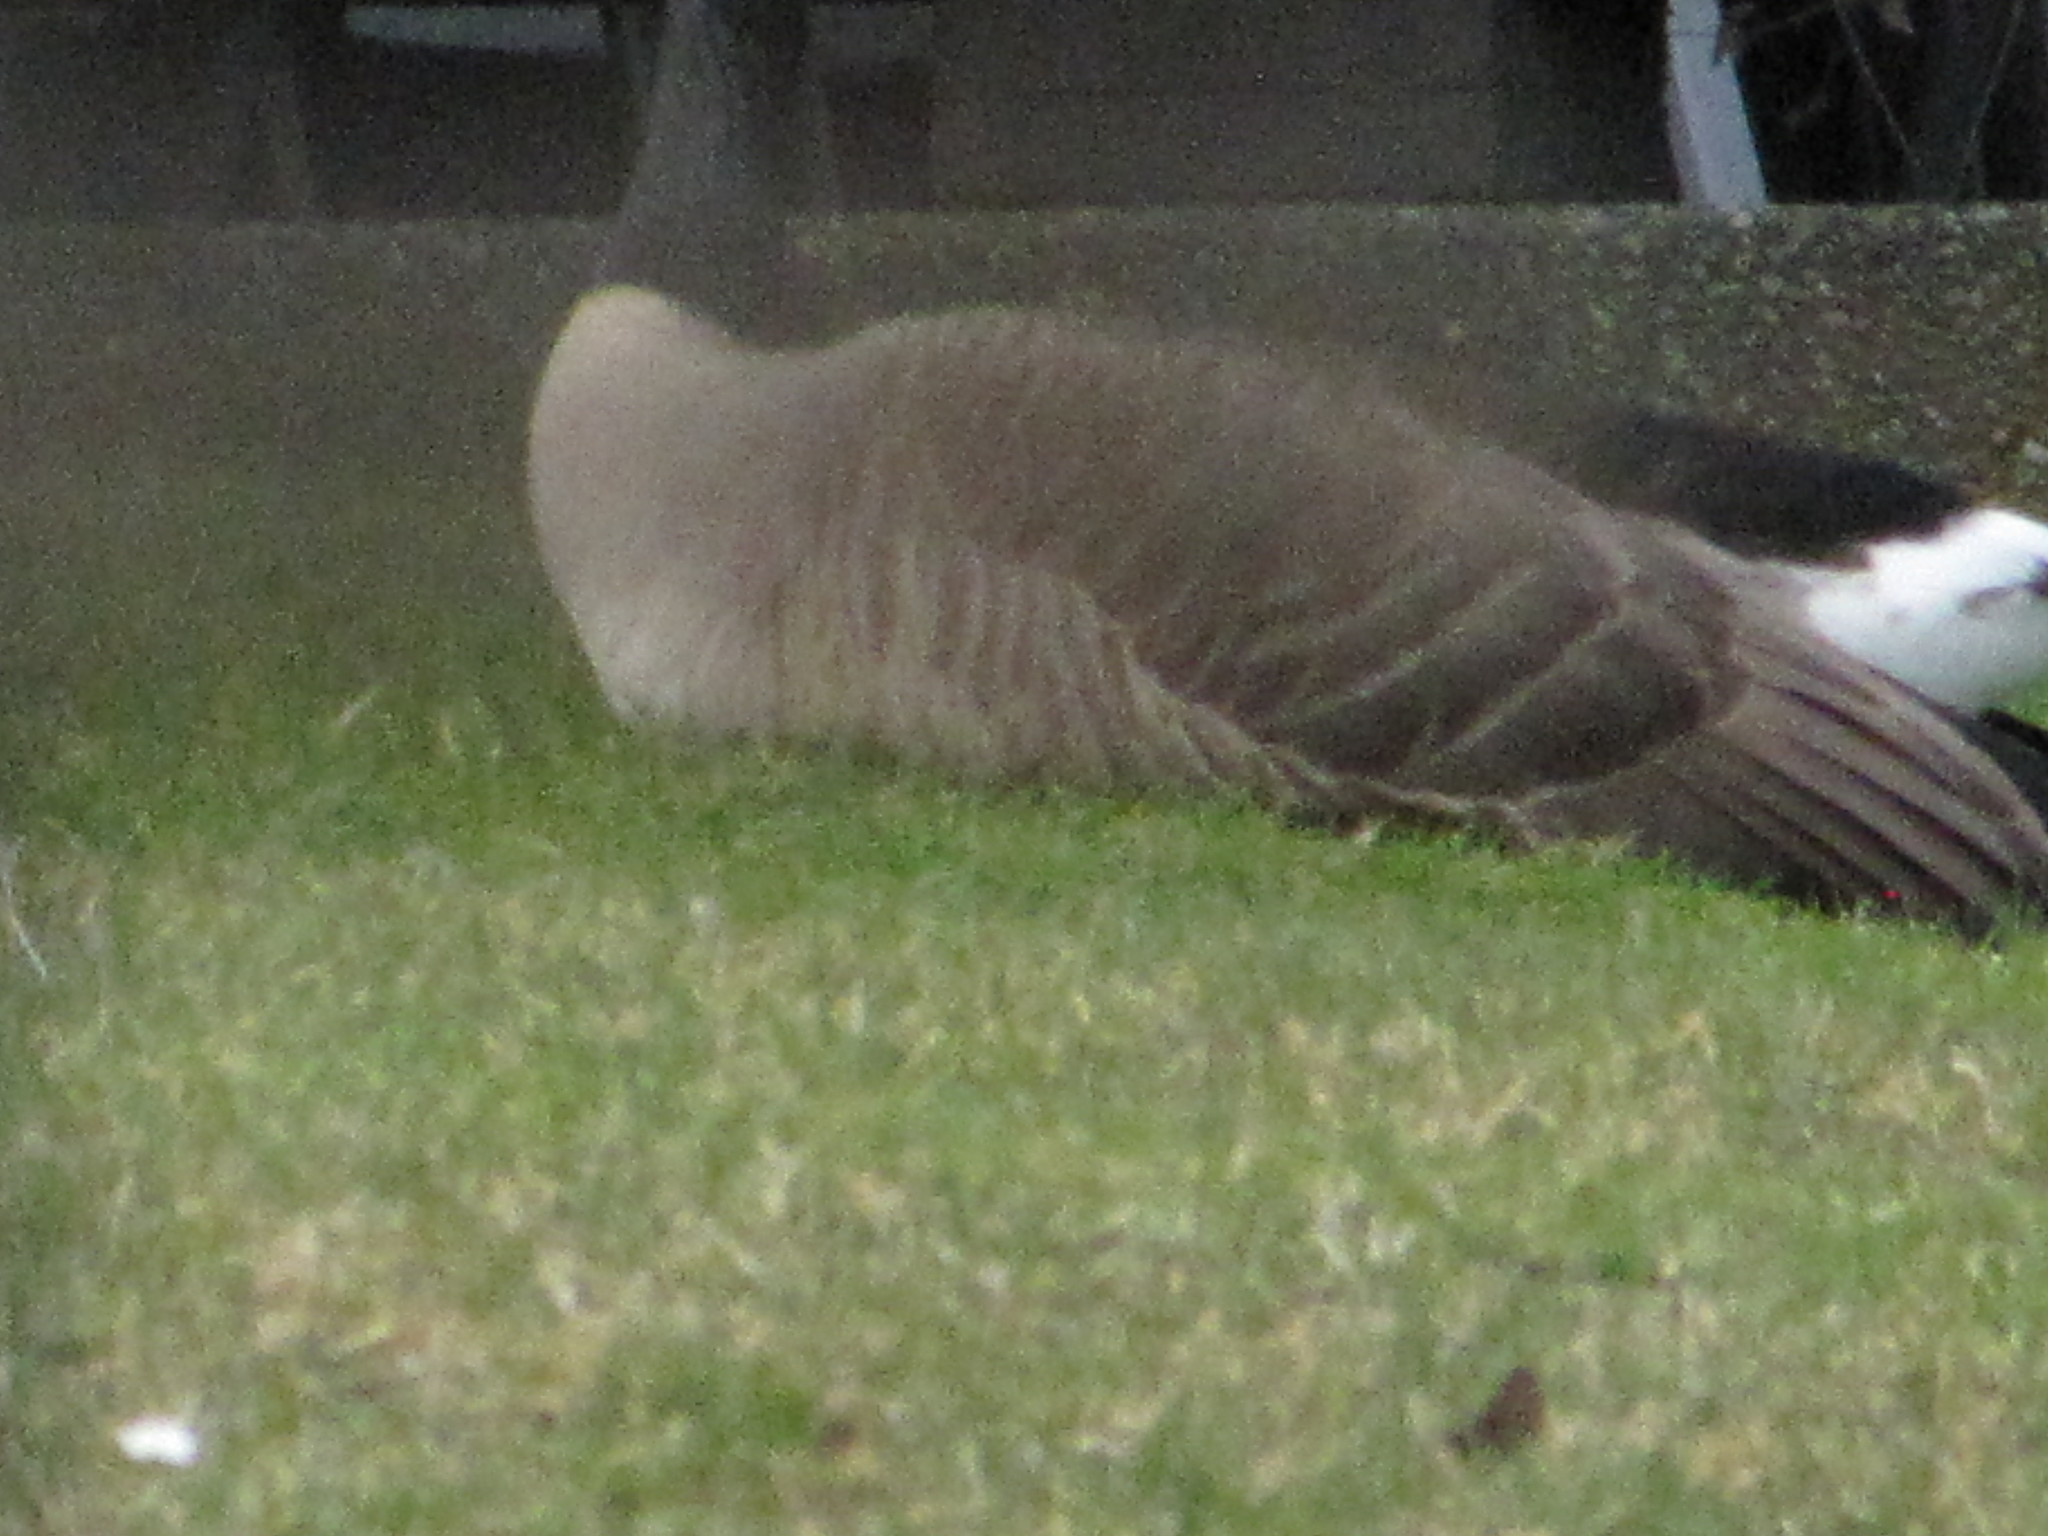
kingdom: Animalia
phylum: Chordata
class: Aves
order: Anseriformes
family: Anatidae
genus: Branta
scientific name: Branta canadensis
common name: Canada goose
